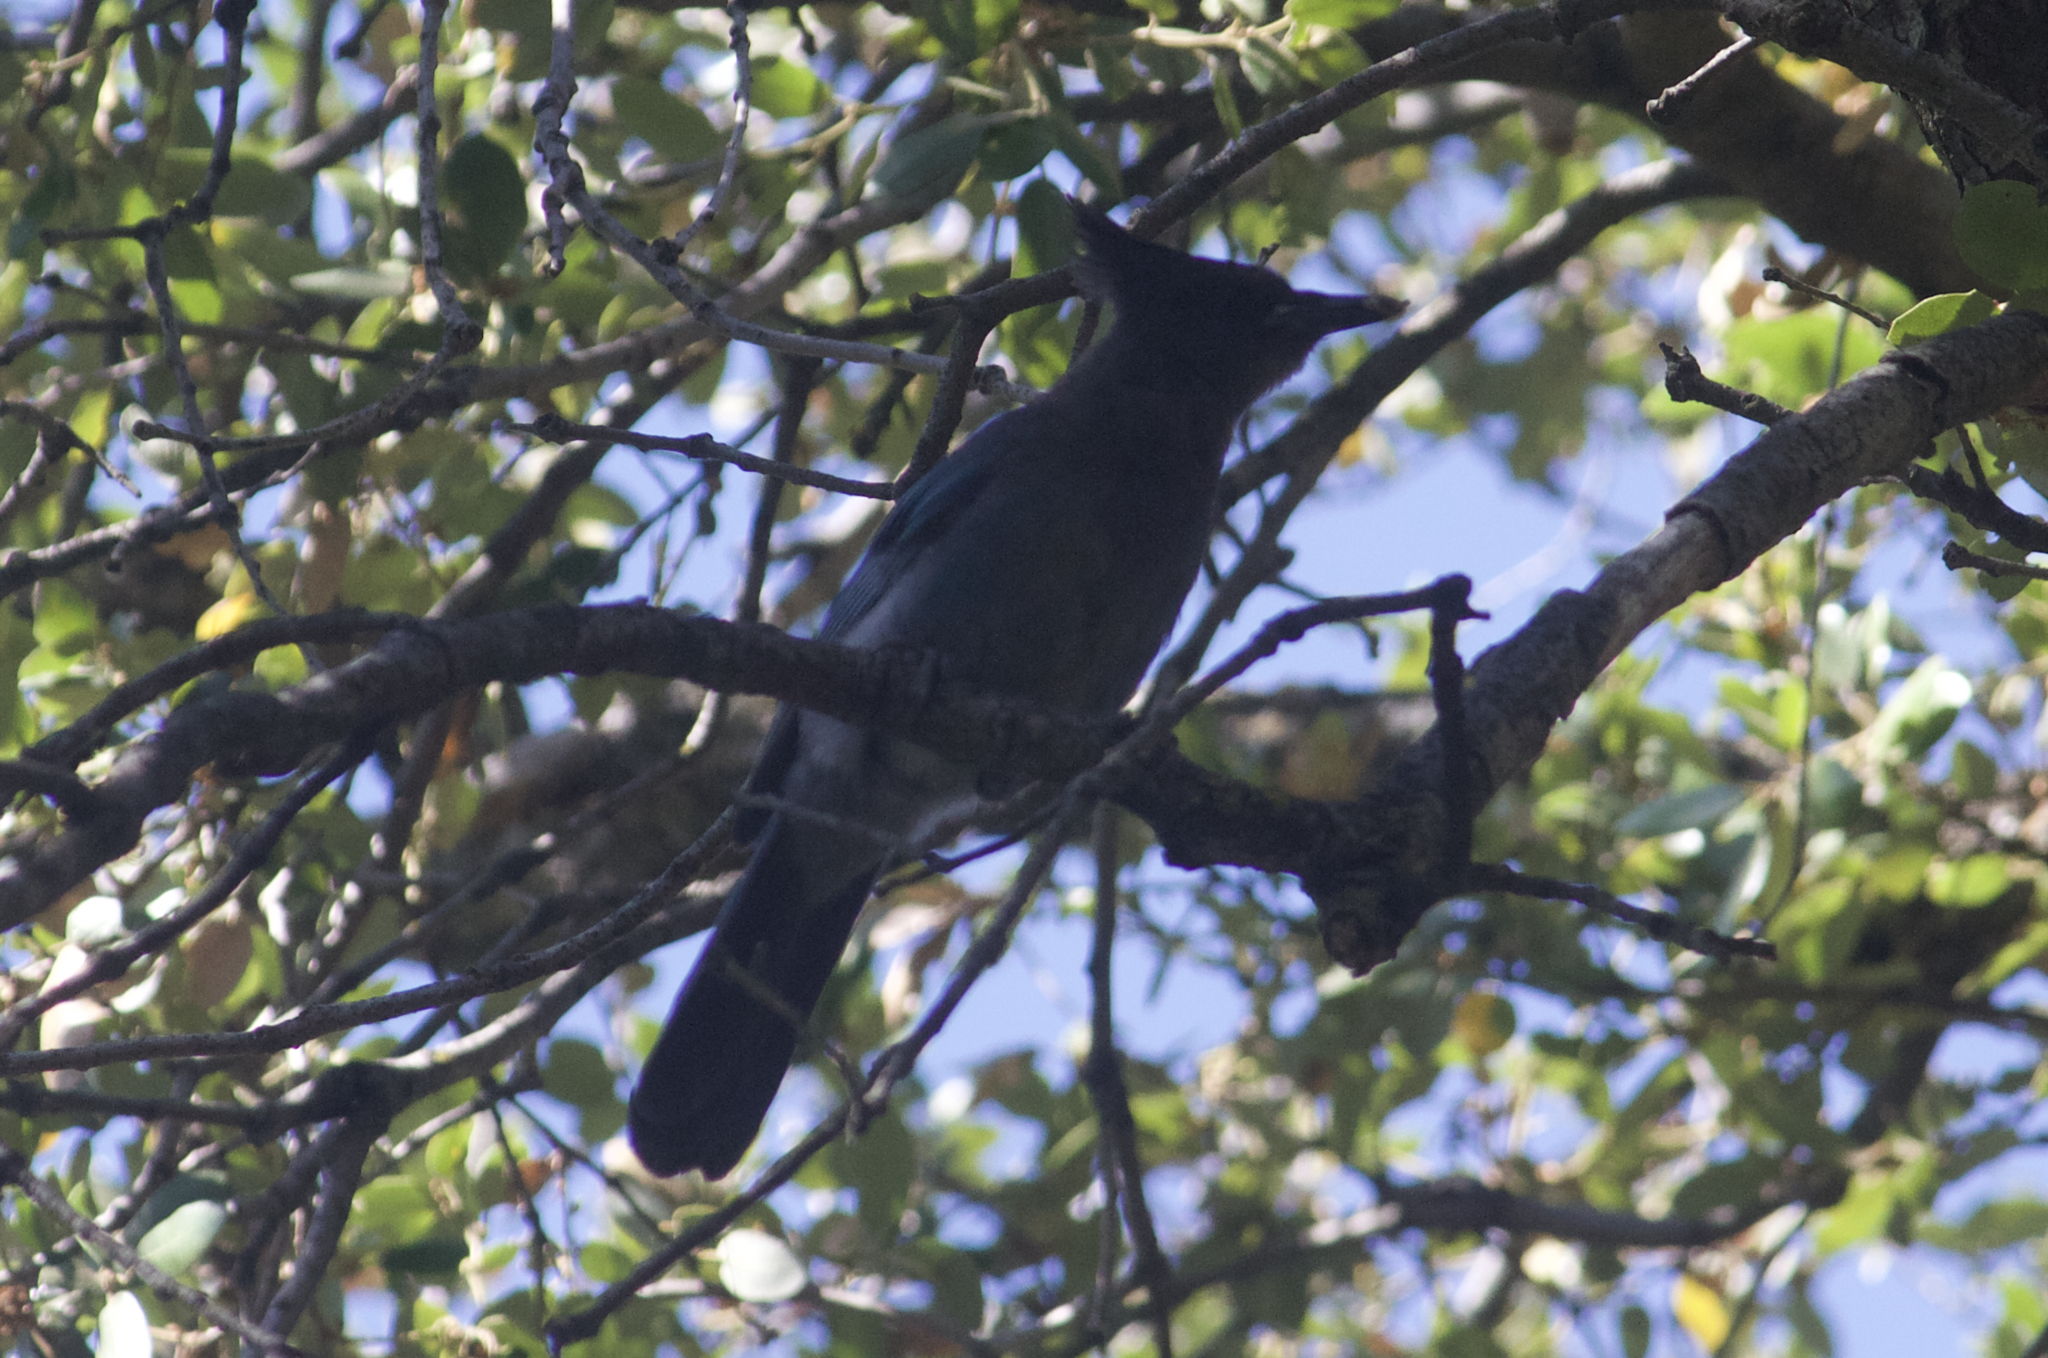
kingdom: Animalia
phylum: Chordata
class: Aves
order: Passeriformes
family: Corvidae
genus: Cyanocitta
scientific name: Cyanocitta stelleri
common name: Steller's jay
